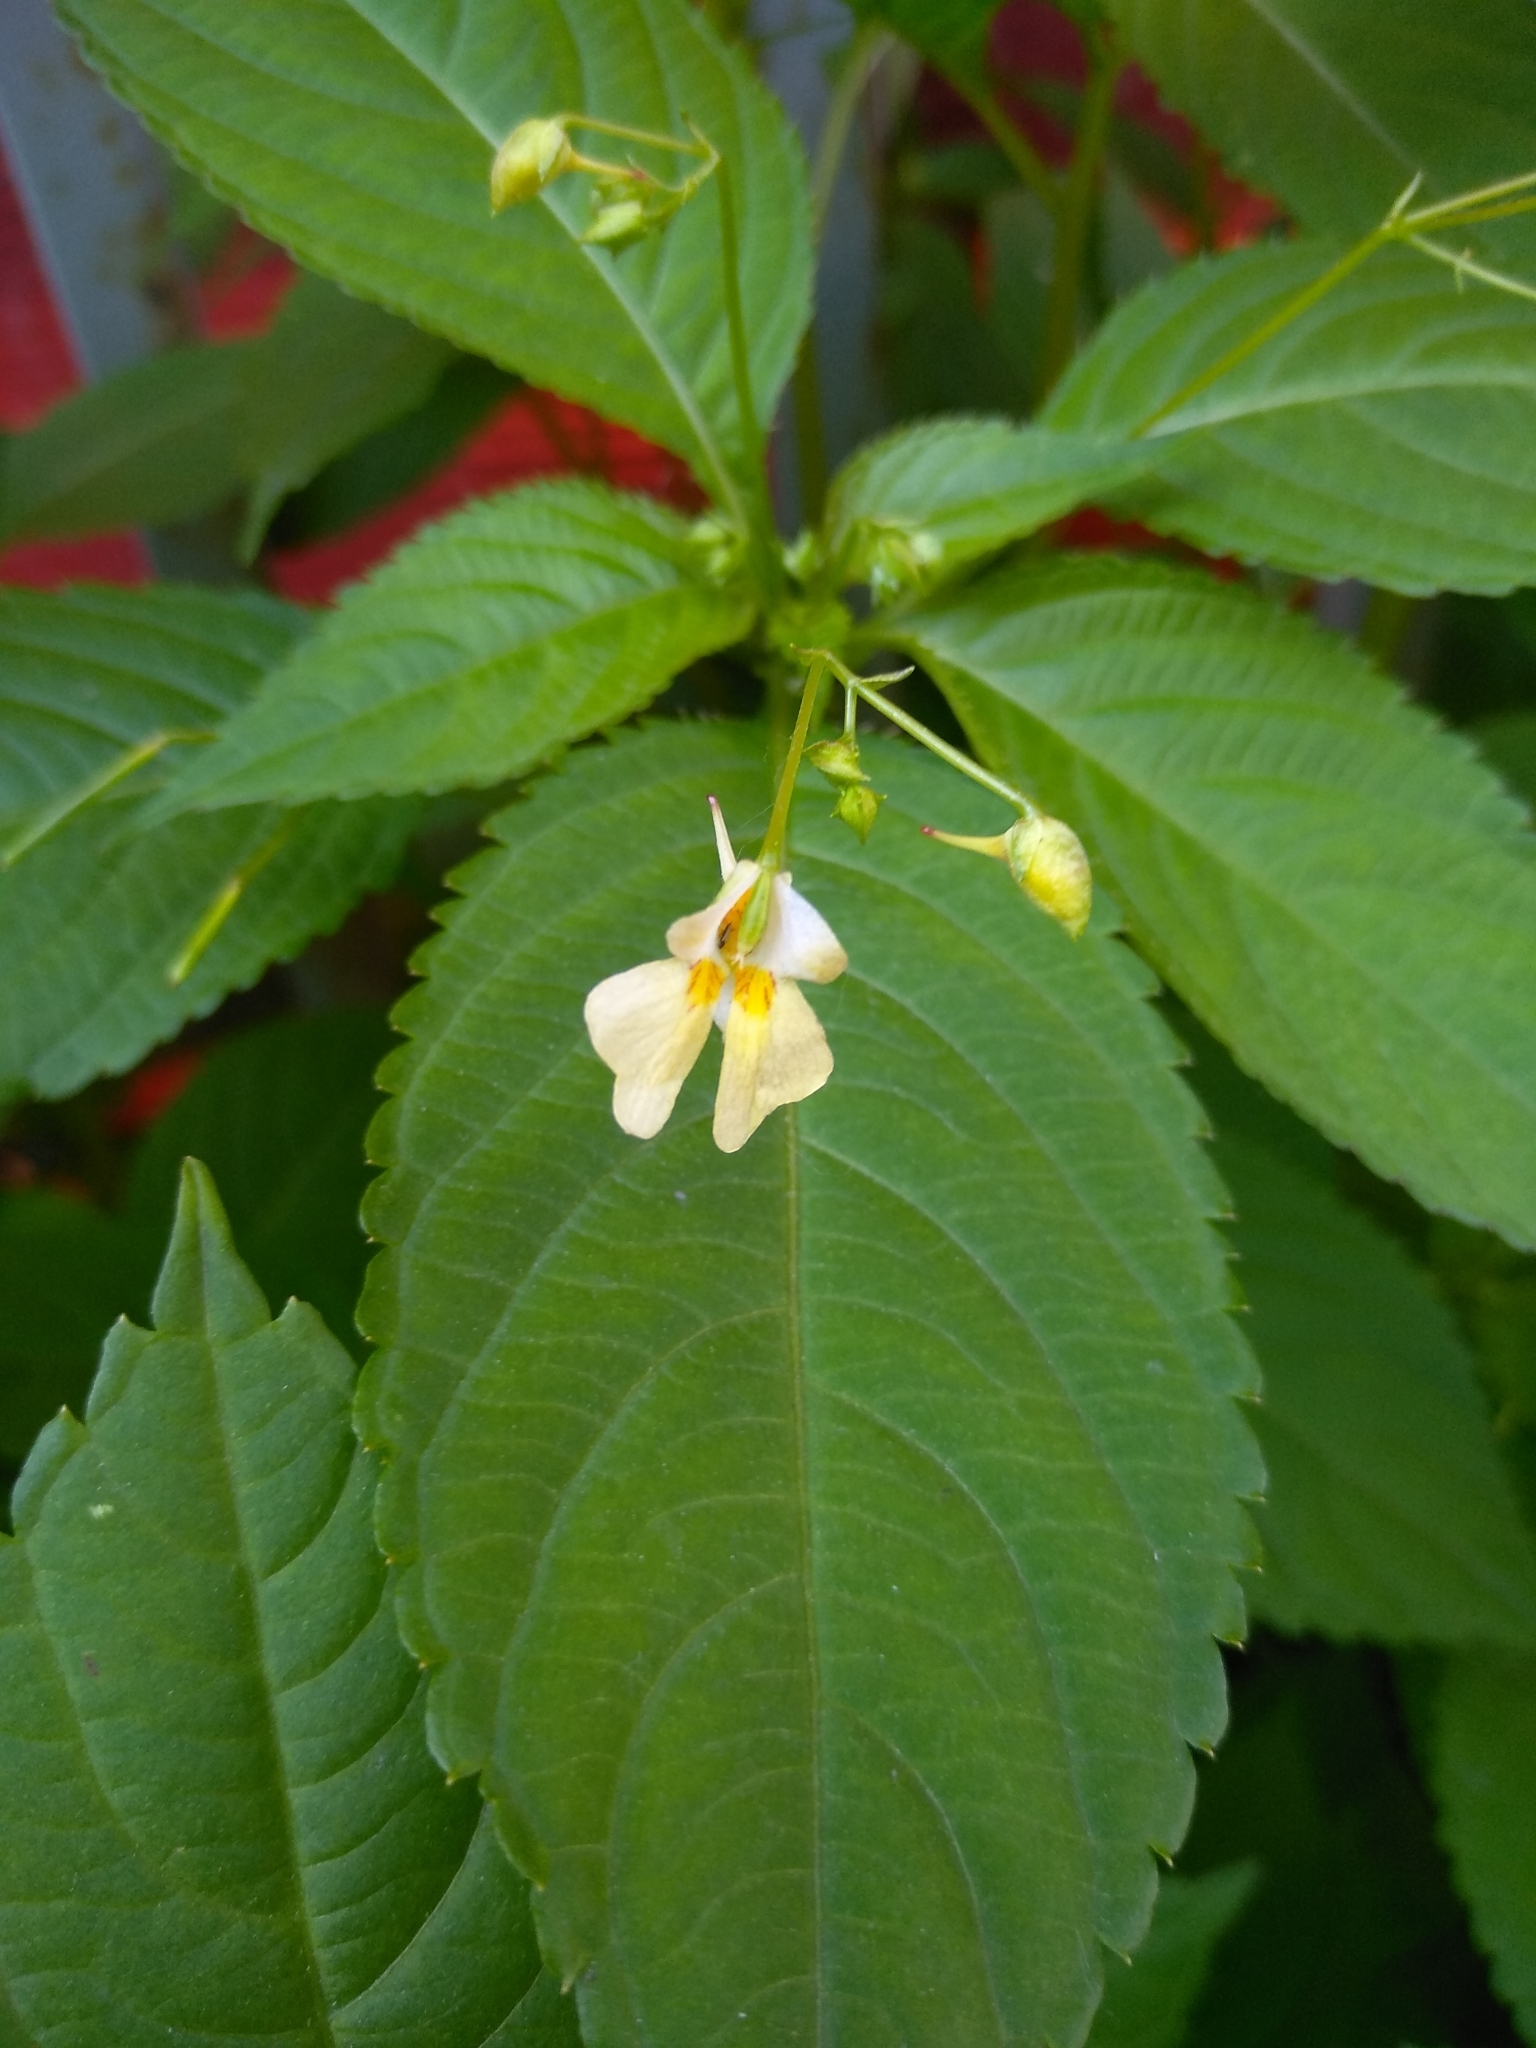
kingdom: Plantae
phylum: Tracheophyta
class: Magnoliopsida
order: Ericales
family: Balsaminaceae
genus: Impatiens
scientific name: Impatiens parviflora
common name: Small balsam
